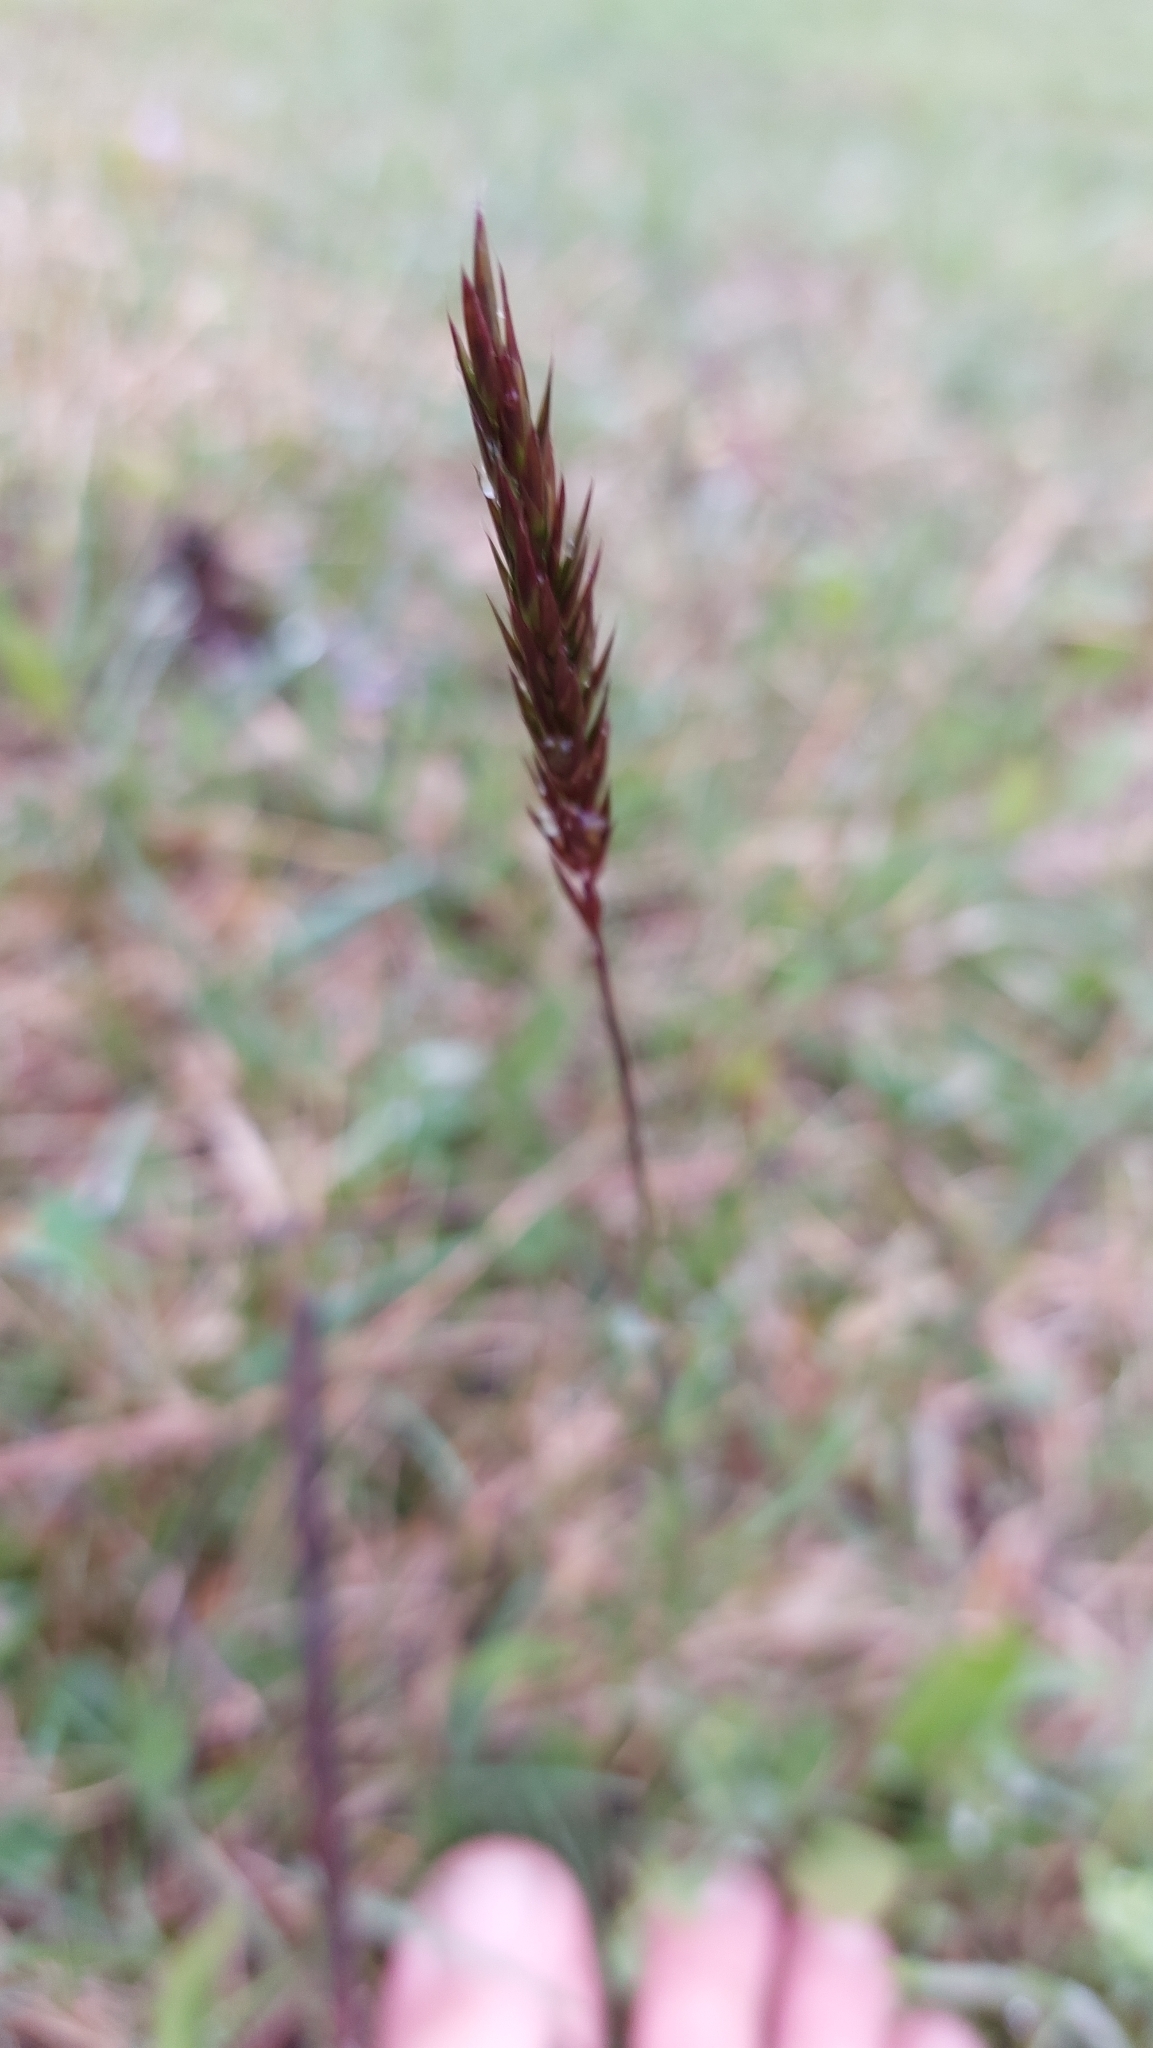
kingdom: Plantae
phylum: Tracheophyta
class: Liliopsida
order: Poales
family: Poaceae
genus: Anthoxanthum
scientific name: Anthoxanthum odoratum
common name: Sweet vernalgrass
